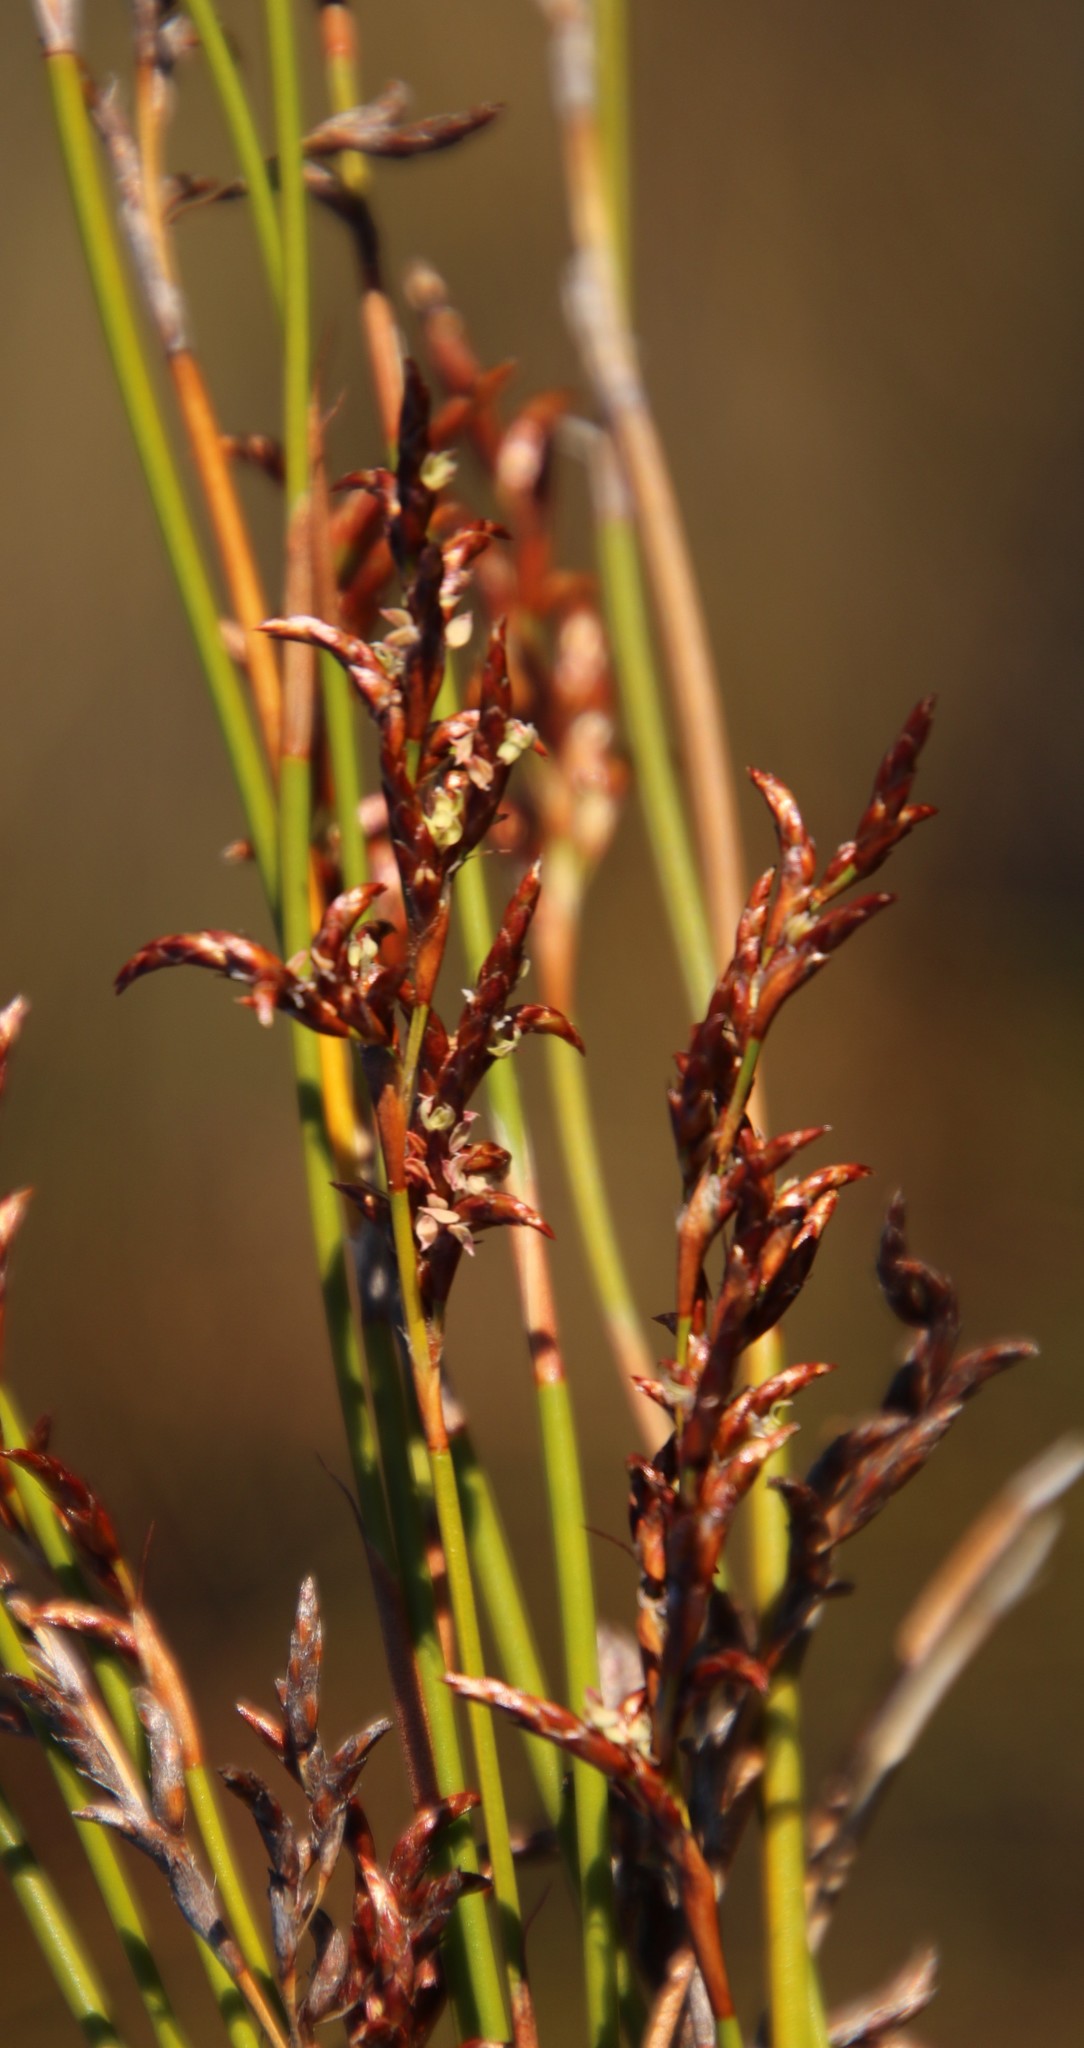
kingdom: Plantae
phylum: Tracheophyta
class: Liliopsida
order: Poales
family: Restionaceae
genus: Restio
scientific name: Restio sieberi
